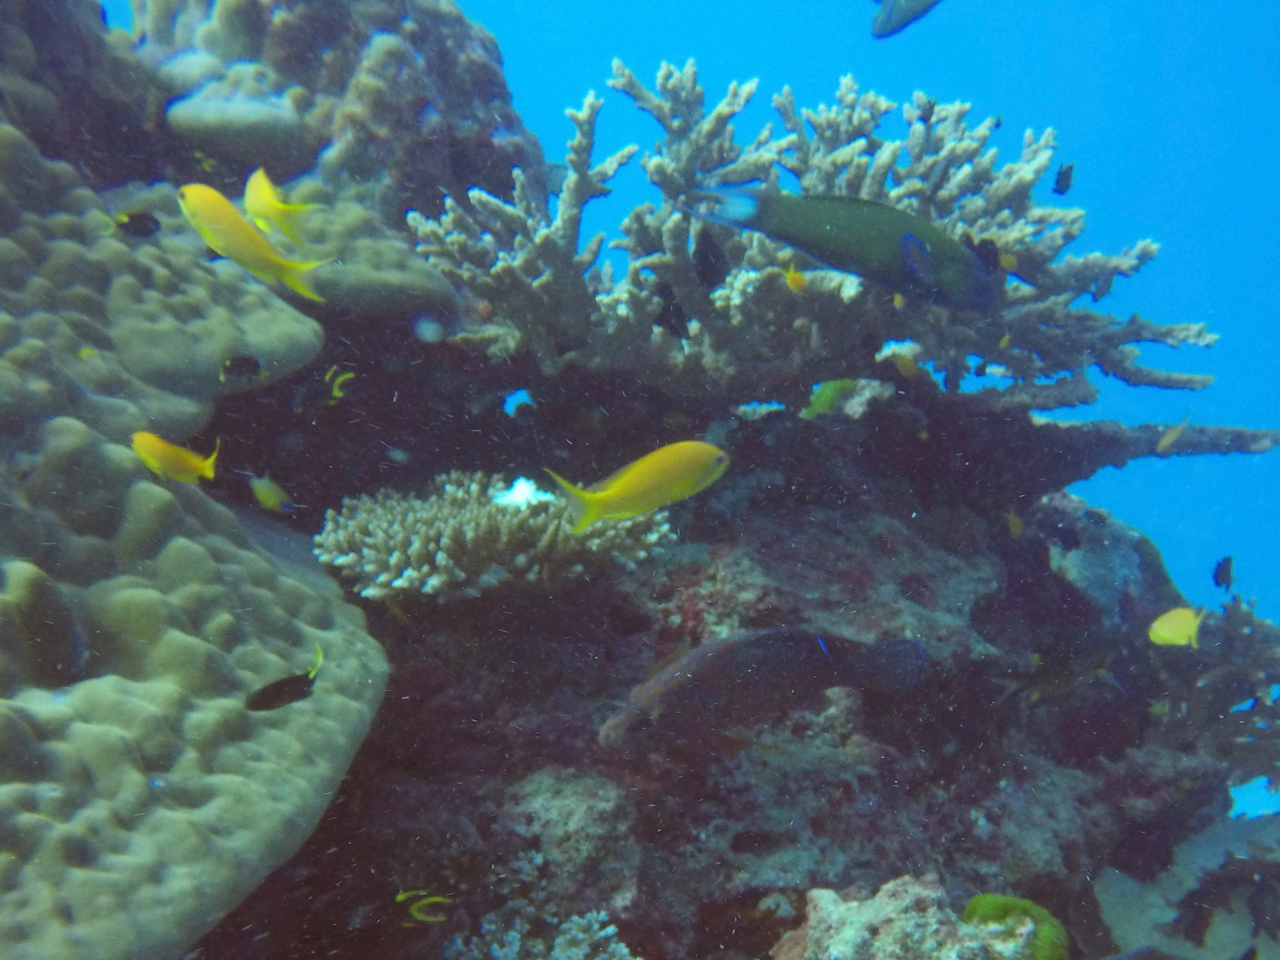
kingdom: Animalia
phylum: Chordata
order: Perciformes
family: Serranidae
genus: Pseudanthias
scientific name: Pseudanthias squamipinnis
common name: Scalefin anthias
